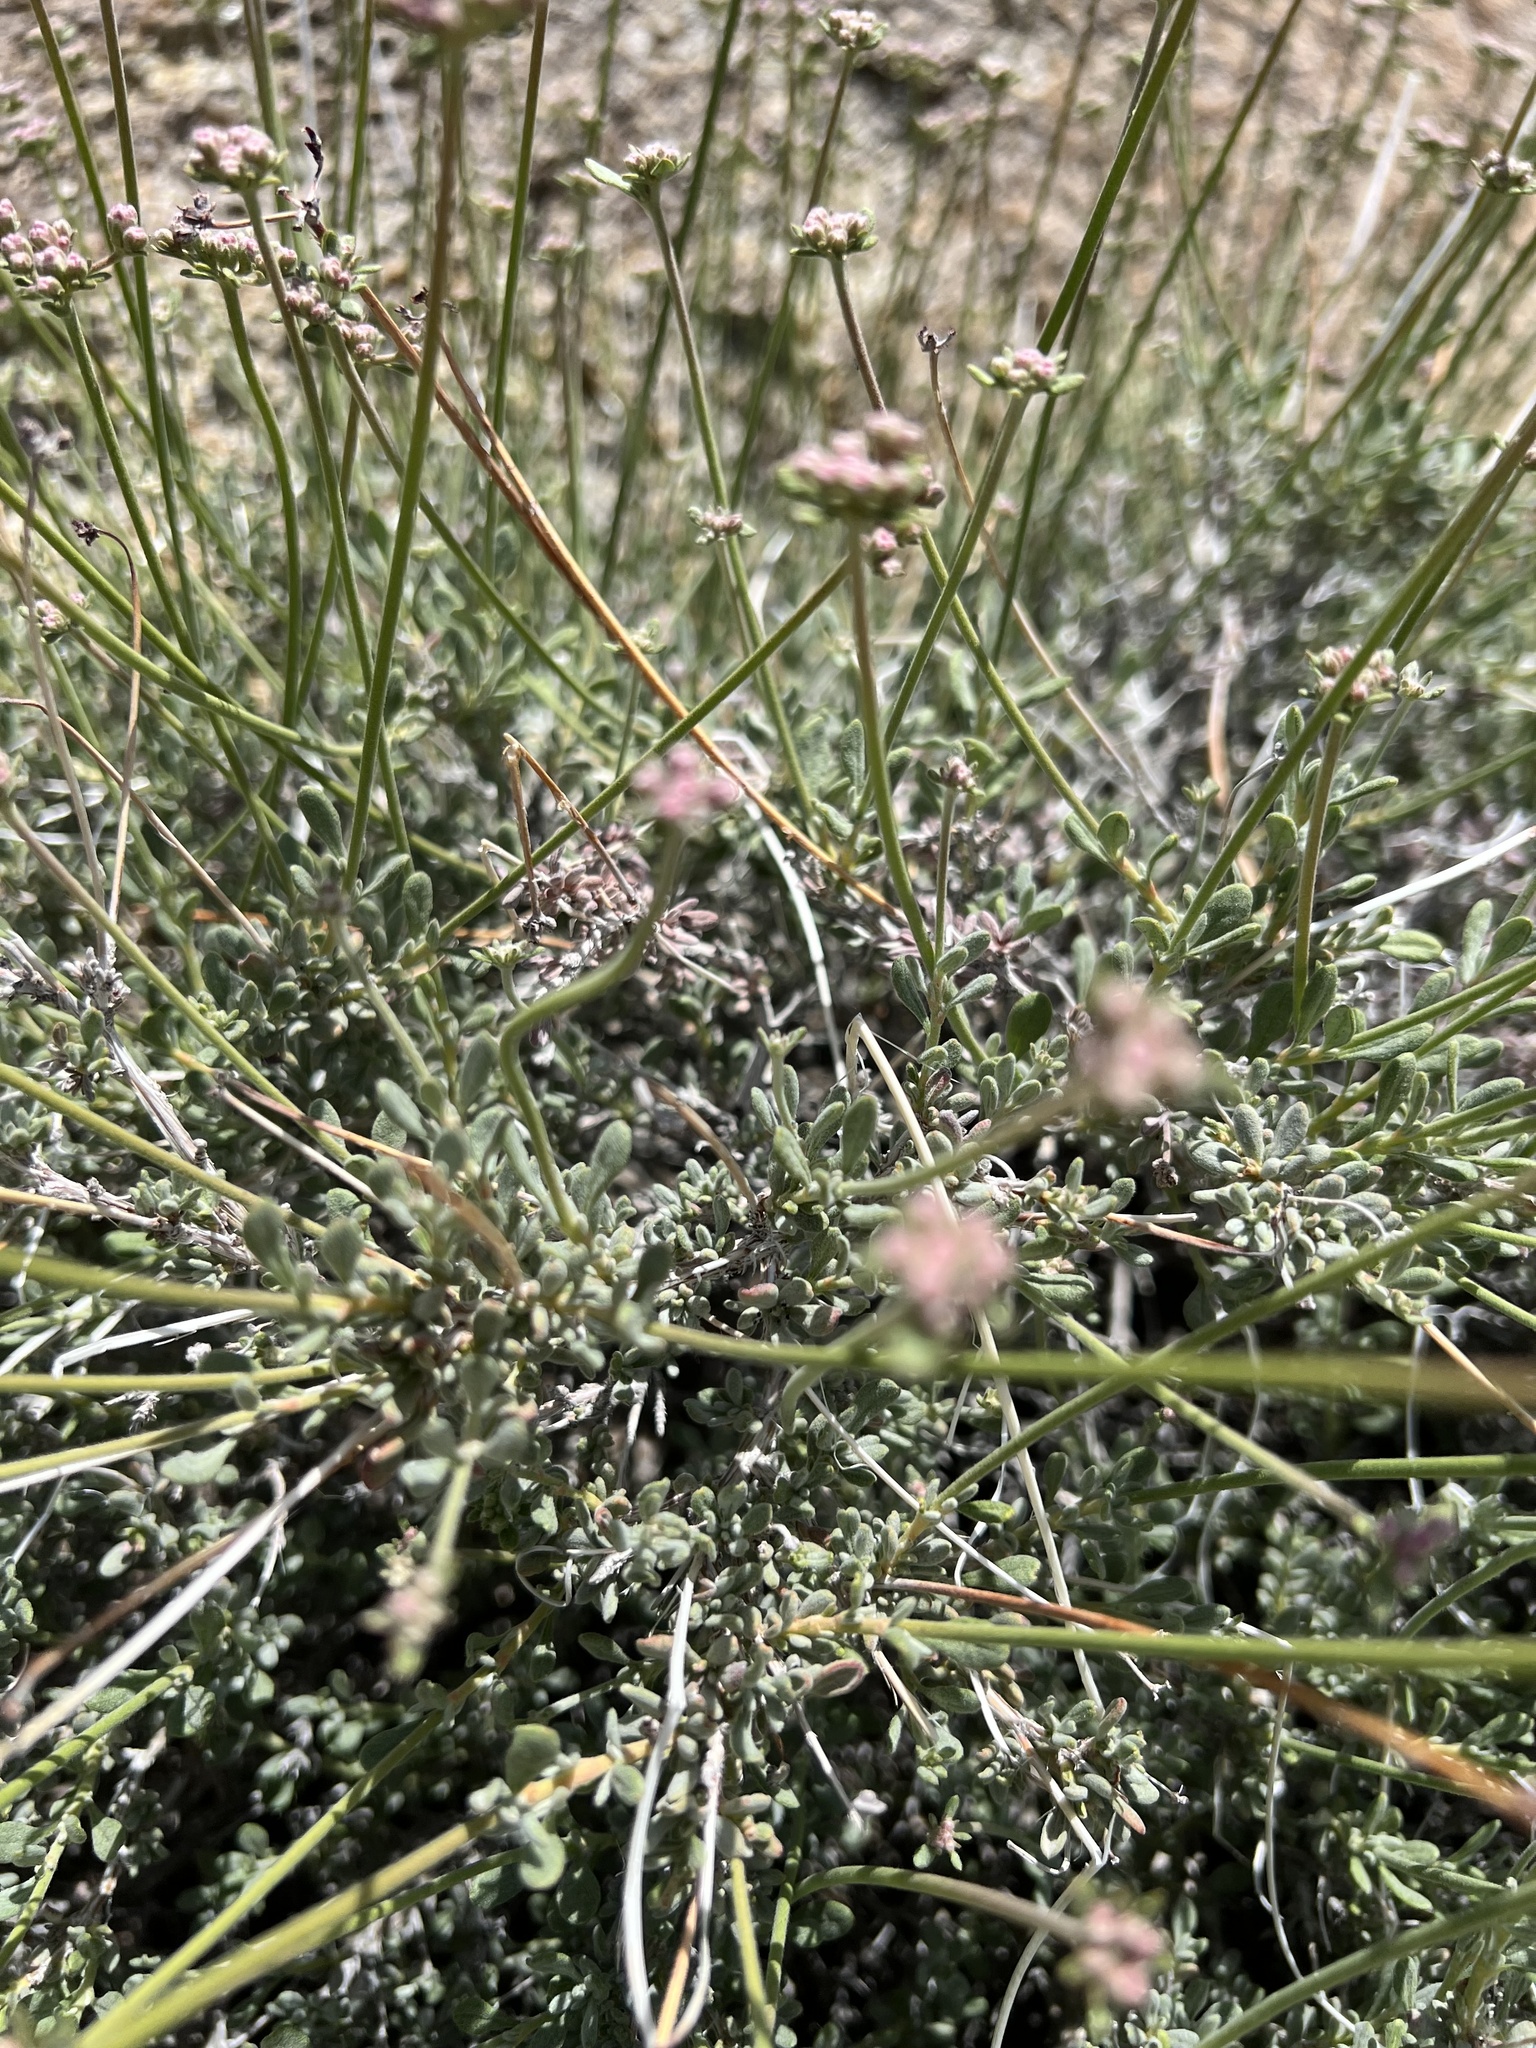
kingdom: Plantae
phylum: Tracheophyta
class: Magnoliopsida
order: Caryophyllales
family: Polygonaceae
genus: Eriogonum
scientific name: Eriogonum fasciculatum
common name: California wild buckwheat
